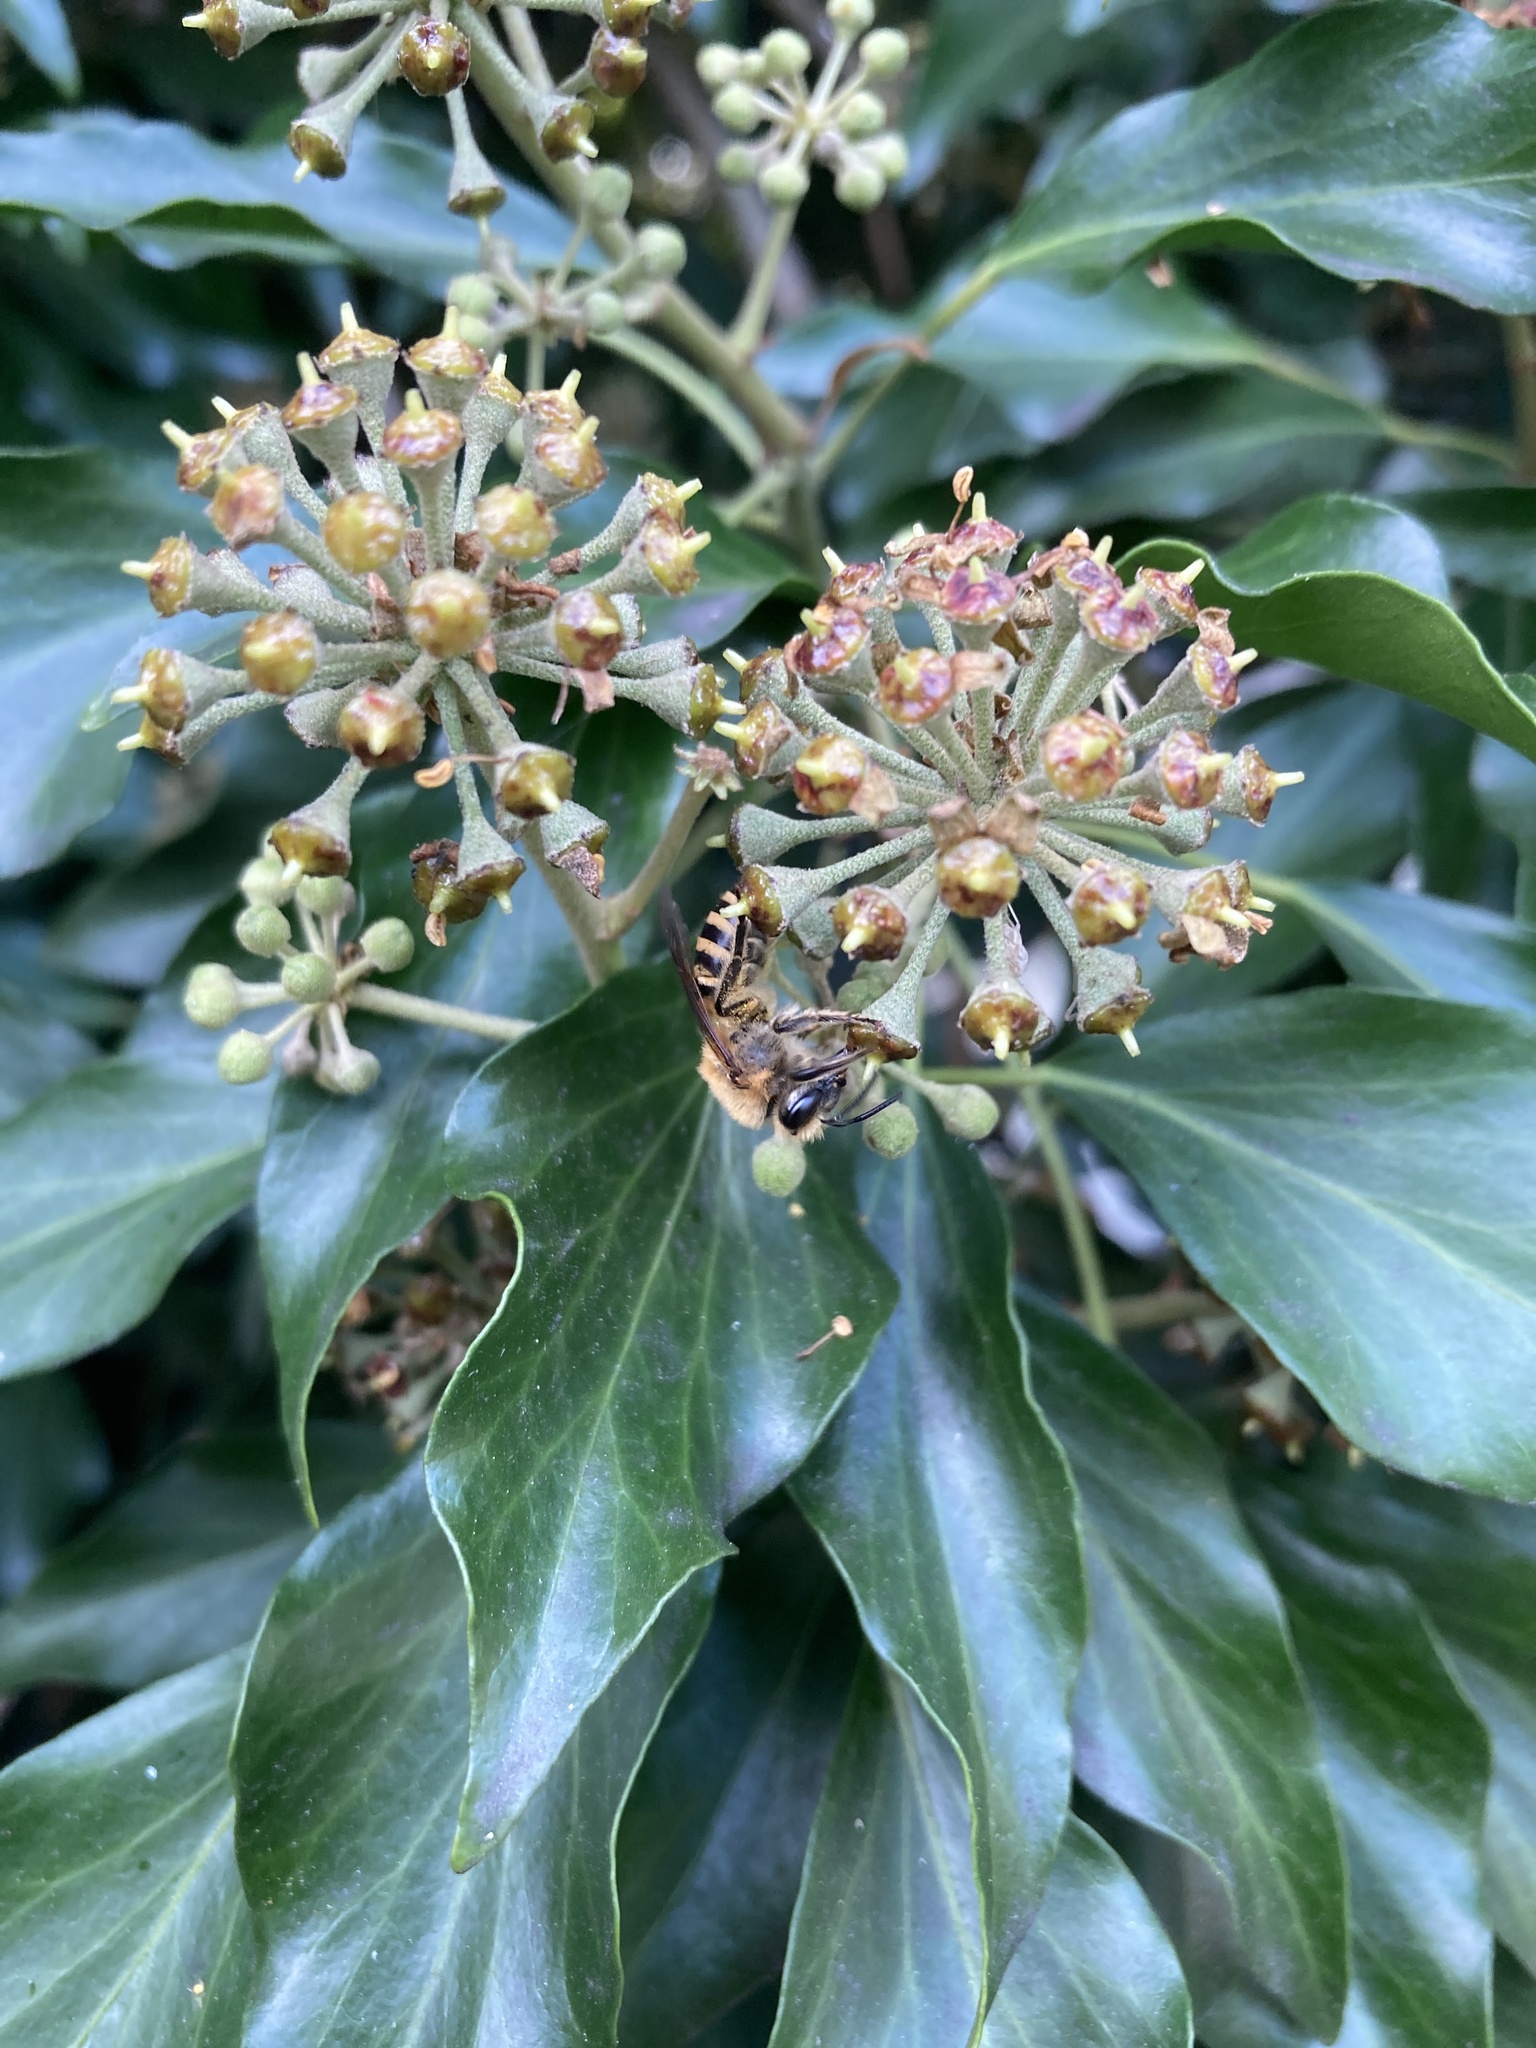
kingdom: Animalia
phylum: Arthropoda
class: Insecta
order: Hymenoptera
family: Colletidae
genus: Colletes
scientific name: Colletes hederae
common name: Ivy bee
